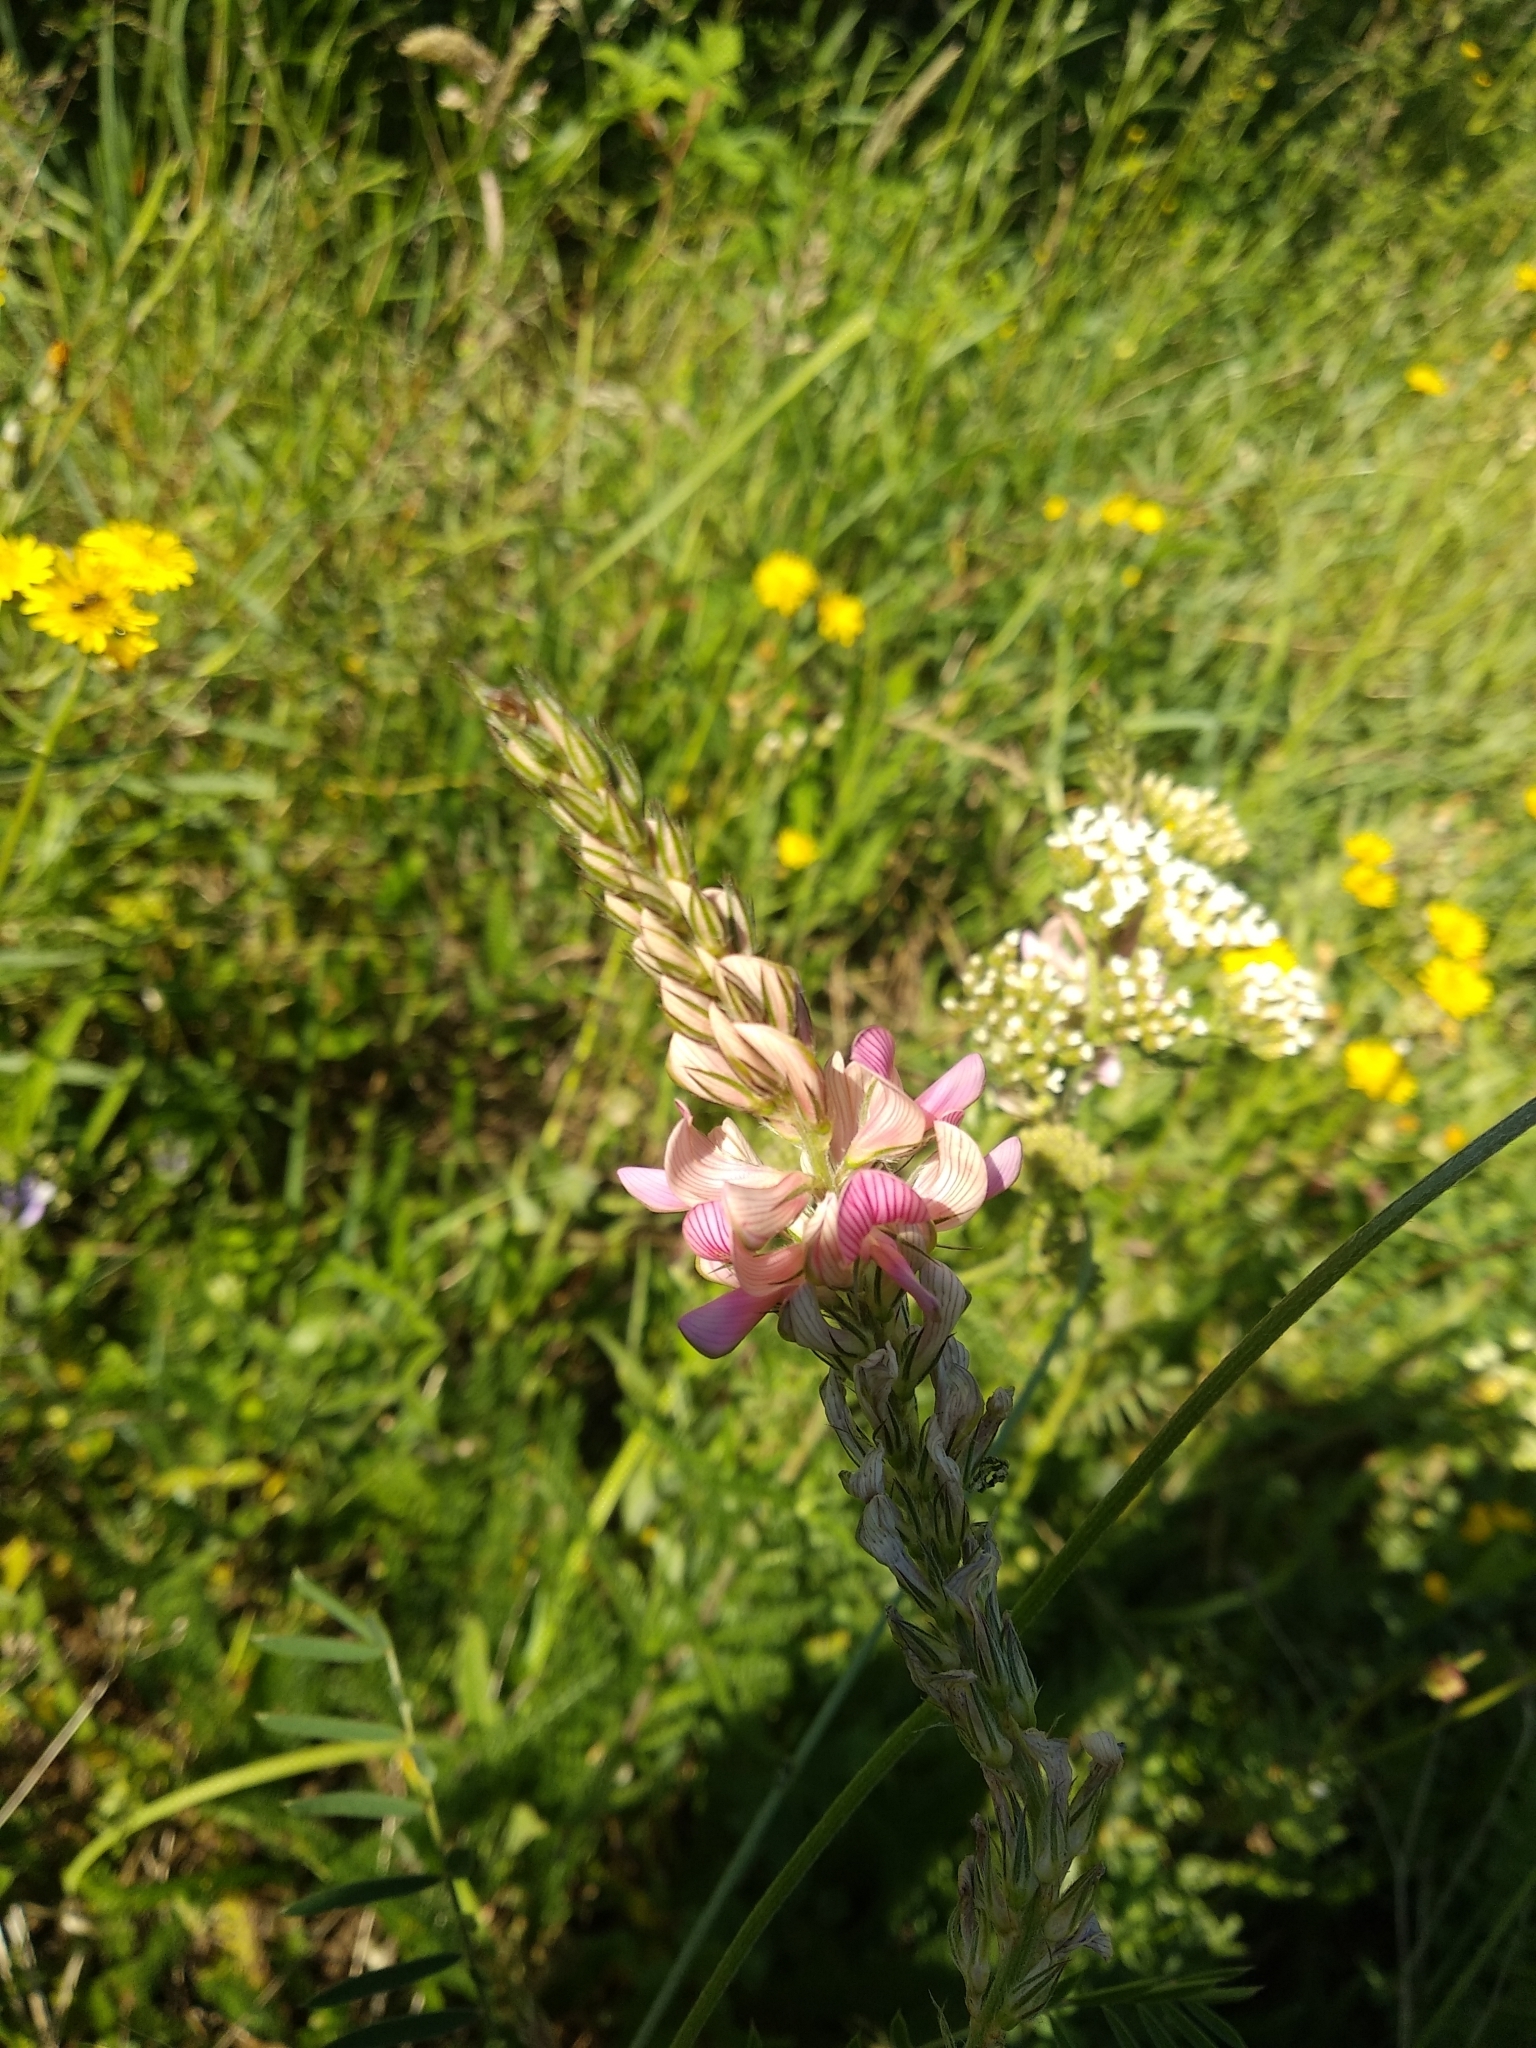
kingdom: Plantae
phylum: Tracheophyta
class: Magnoliopsida
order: Fabales
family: Fabaceae
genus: Onobrychis
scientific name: Onobrychis viciifolia
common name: Sainfoin
